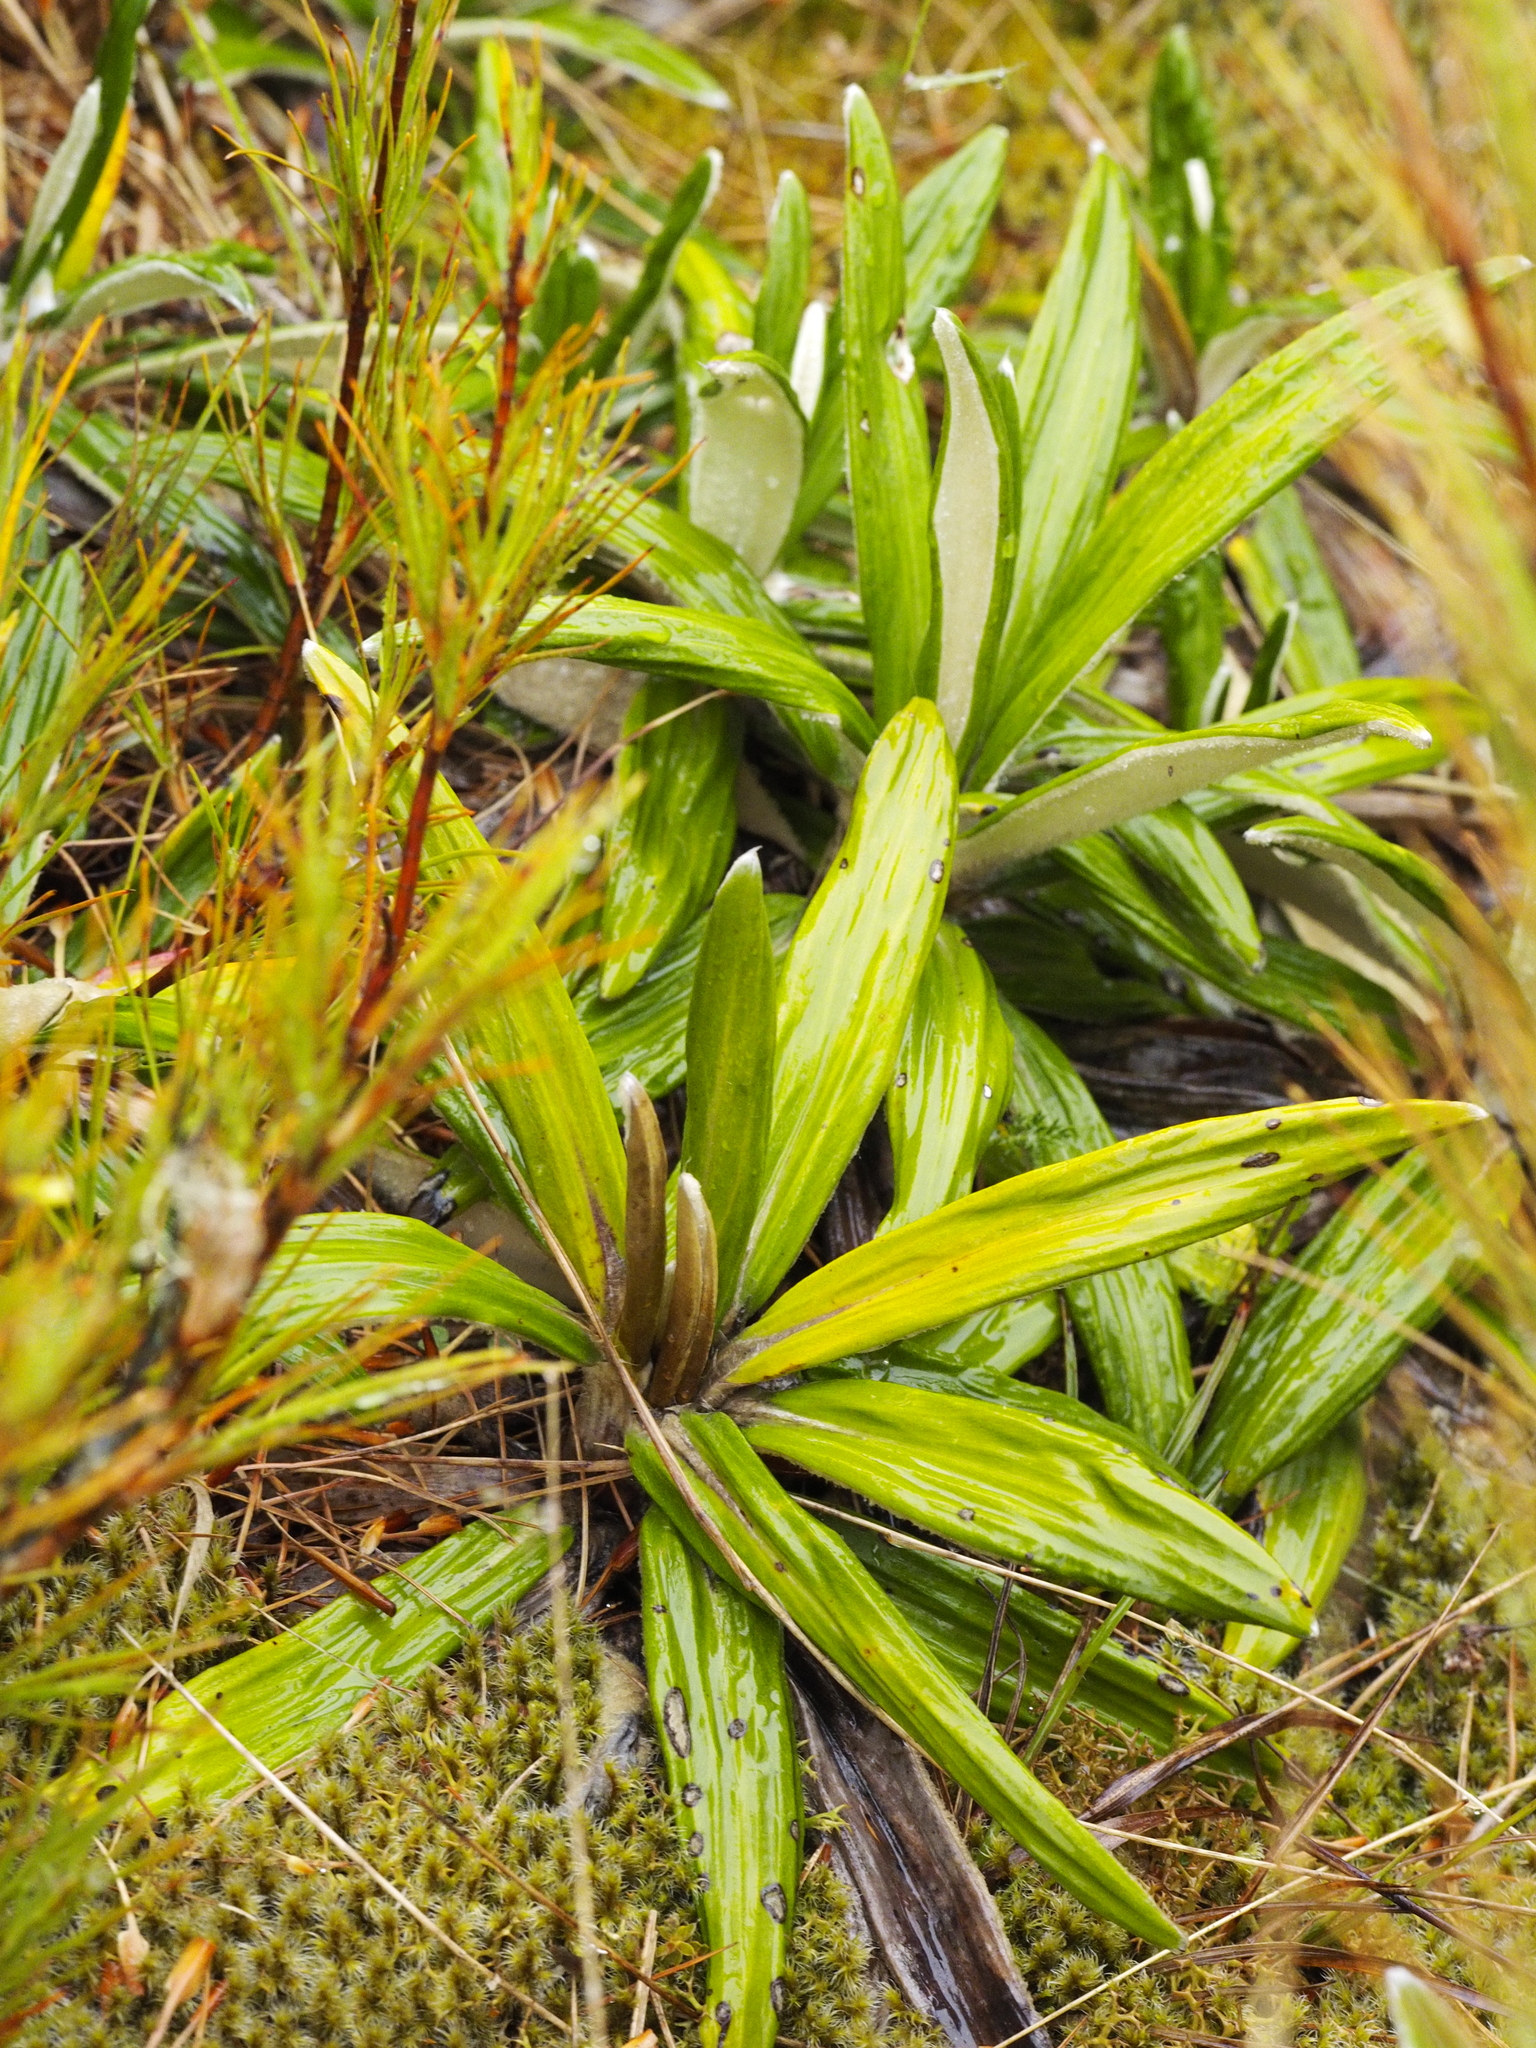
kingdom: Plantae
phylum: Tracheophyta
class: Magnoliopsida
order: Asterales
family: Asteraceae
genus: Celmisia
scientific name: Celmisia spectabilis
